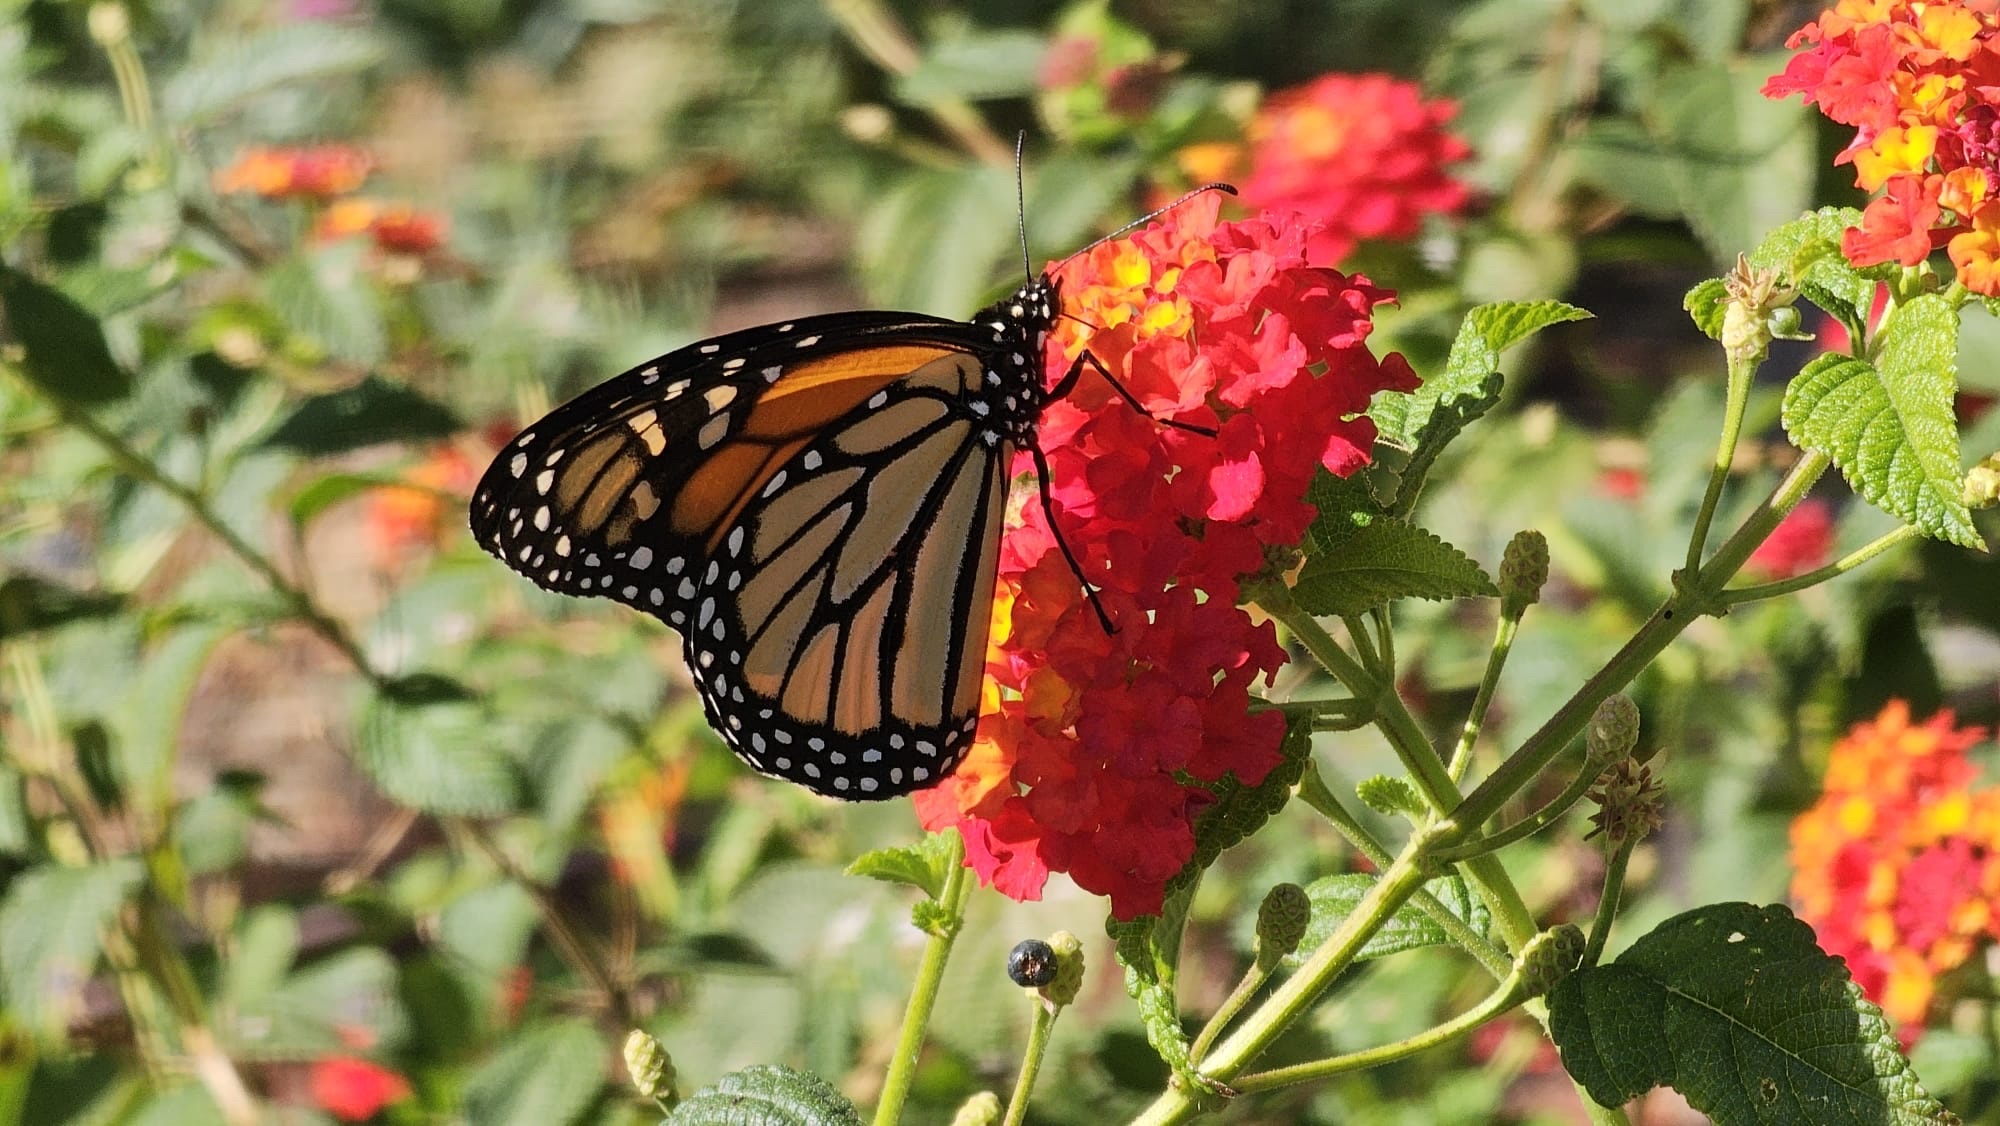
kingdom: Animalia
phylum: Arthropoda
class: Insecta
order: Lepidoptera
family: Nymphalidae
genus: Danaus
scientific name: Danaus plexippus
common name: Monarch
